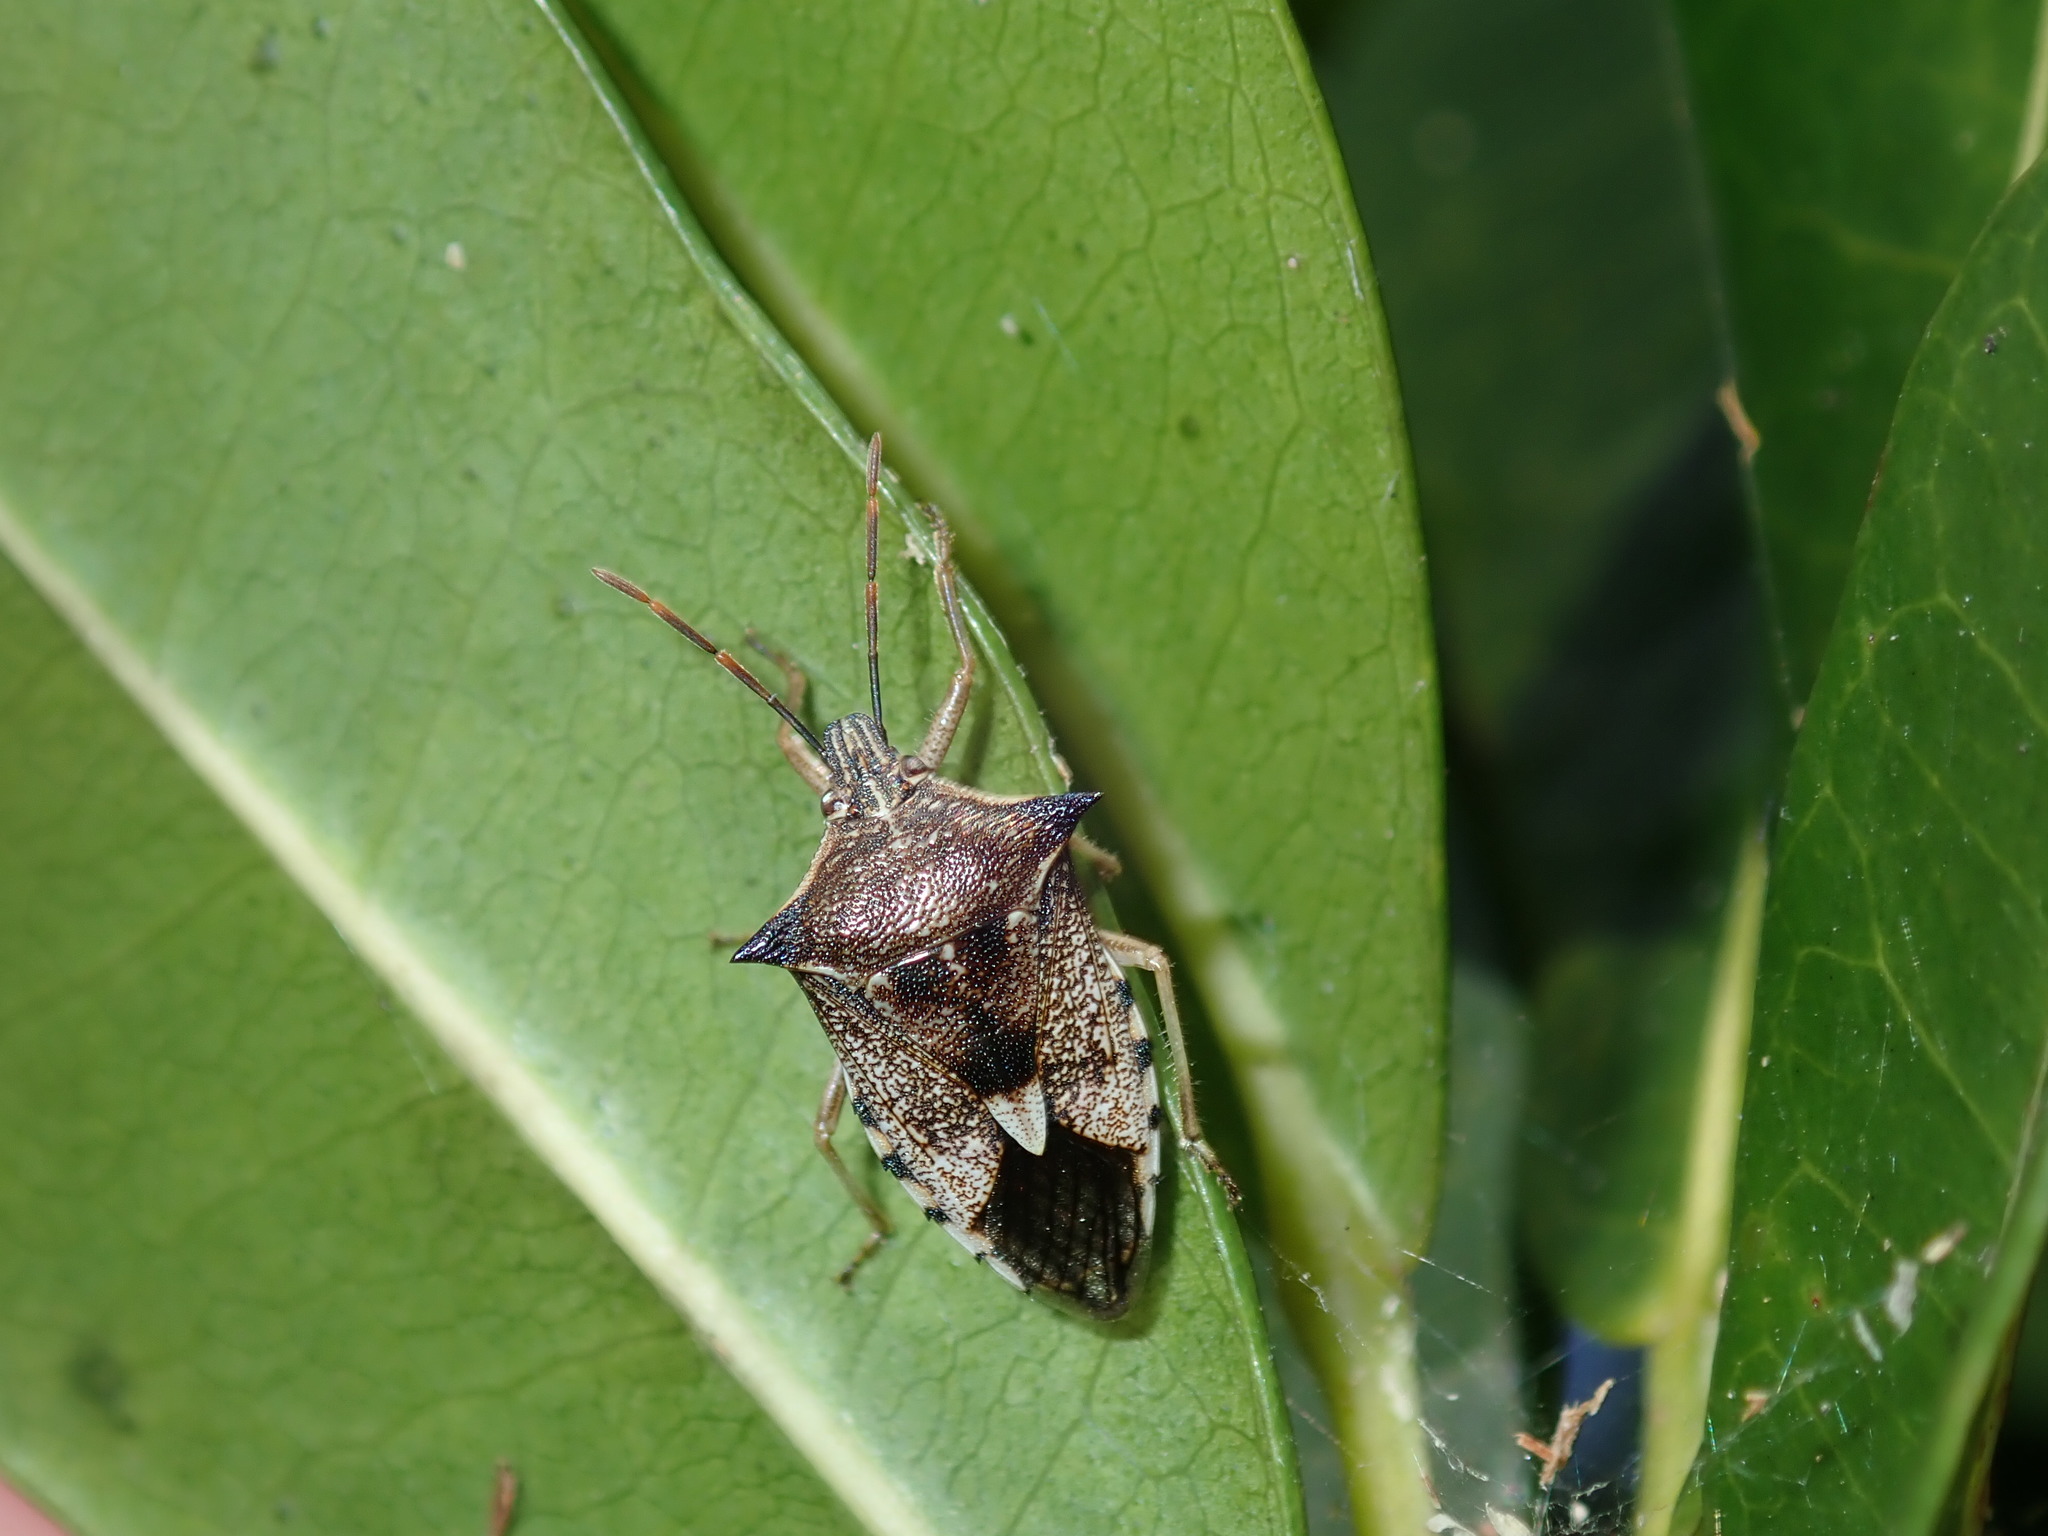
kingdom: Animalia
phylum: Arthropoda
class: Insecta
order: Hemiptera
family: Pentatomidae
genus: Oechalia
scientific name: Oechalia schellenbergii
